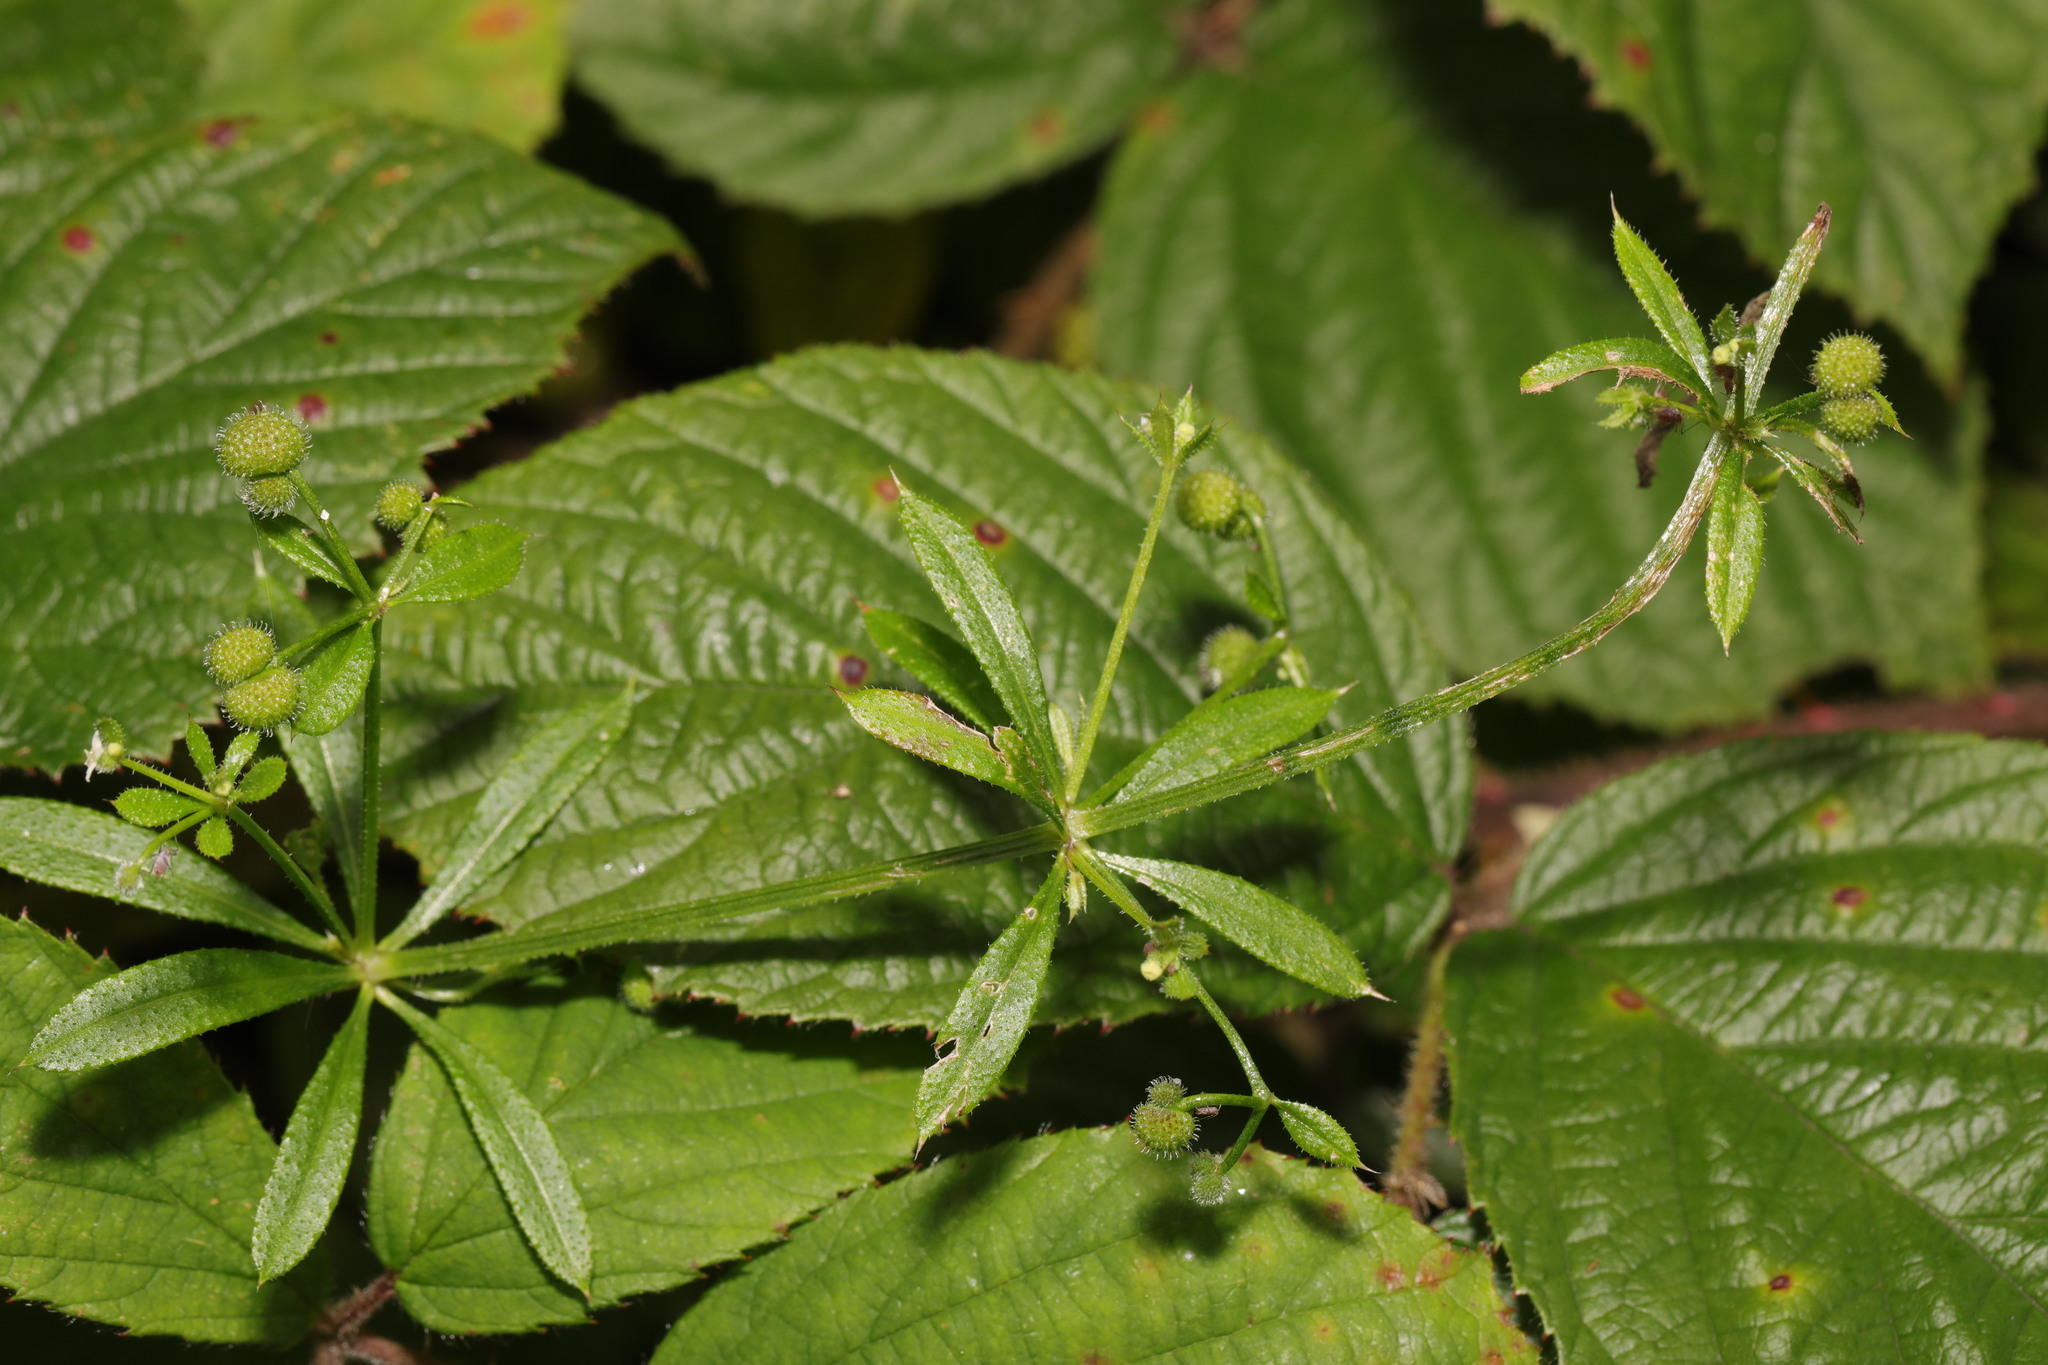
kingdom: Plantae
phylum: Tracheophyta
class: Magnoliopsida
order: Gentianales
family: Rubiaceae
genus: Galium
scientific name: Galium aparine
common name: Cleavers
